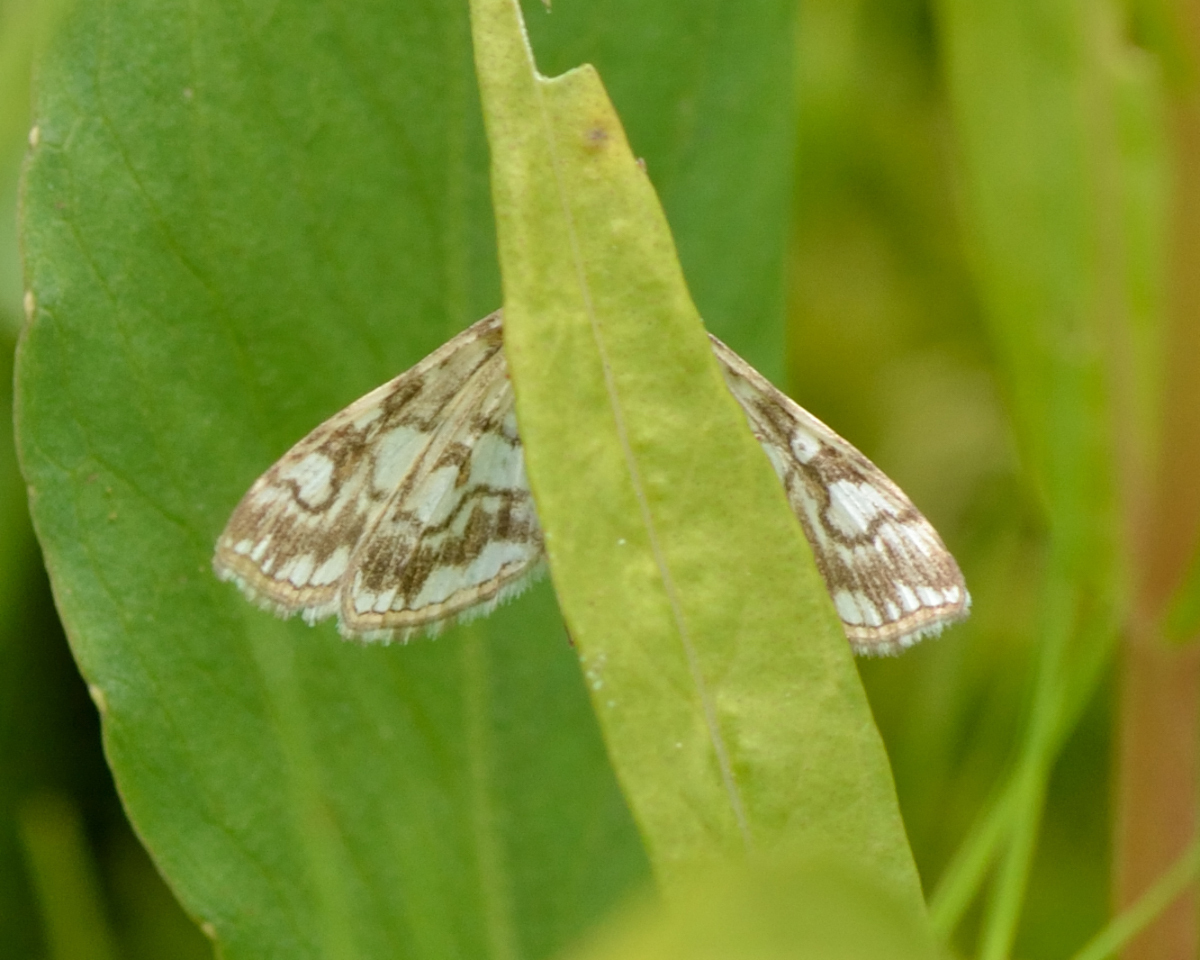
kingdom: Animalia
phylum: Arthropoda
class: Insecta
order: Lepidoptera
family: Crambidae
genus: Elophila
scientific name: Elophila nymphaeata
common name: Brown china-mark
